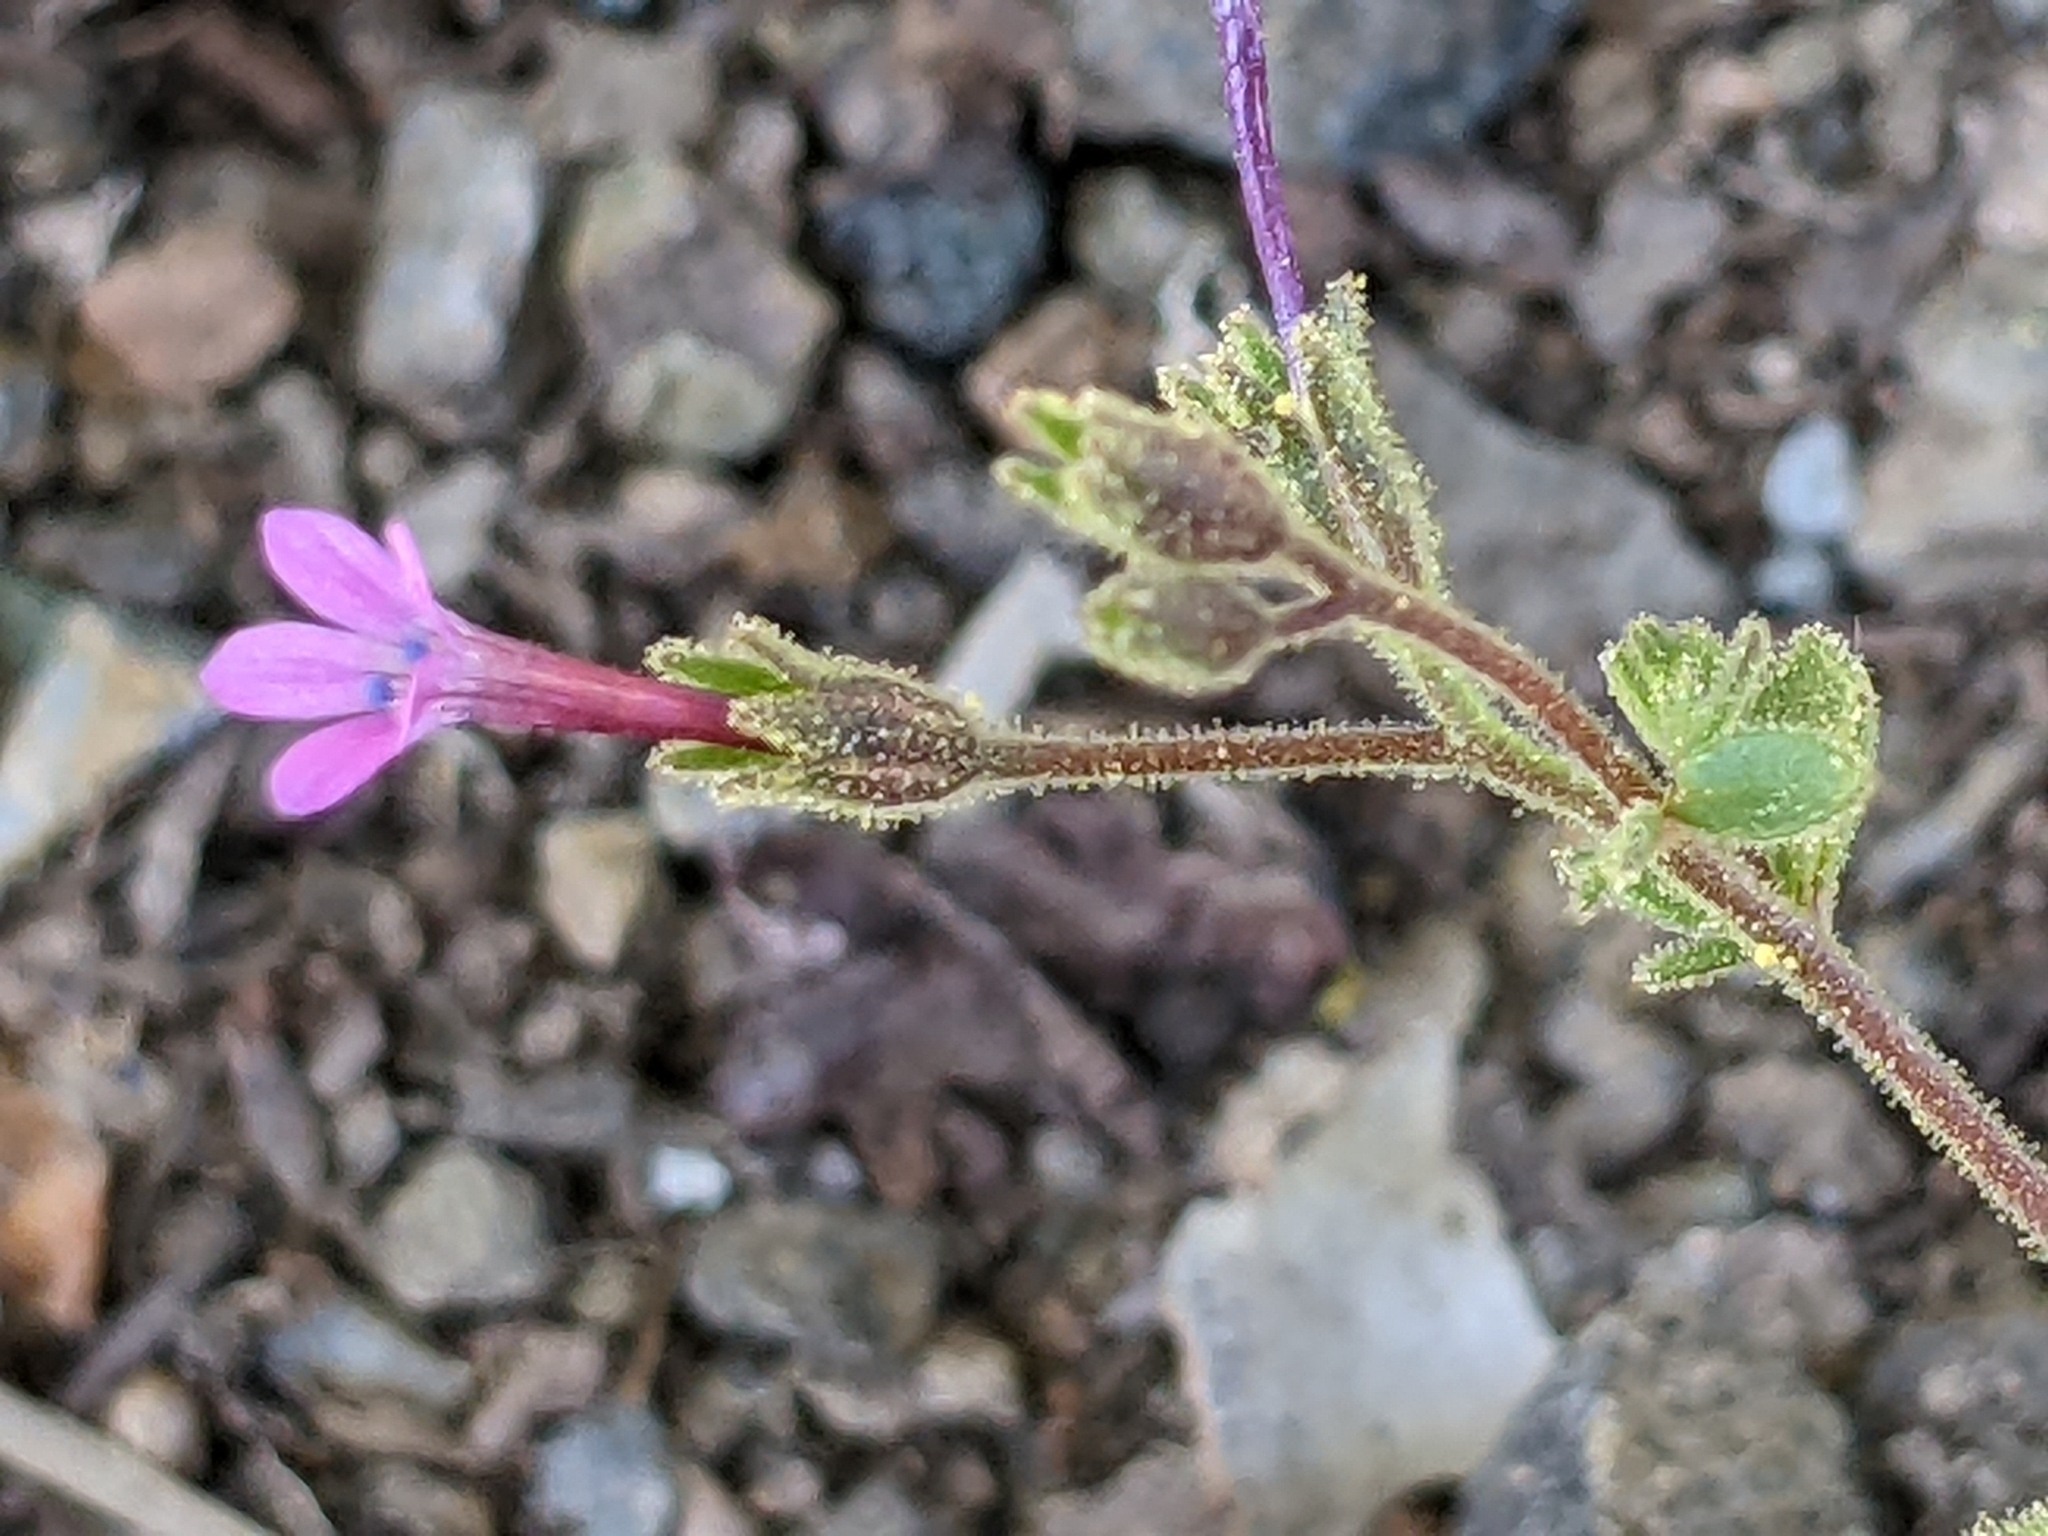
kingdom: Plantae
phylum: Tracheophyta
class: Magnoliopsida
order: Ericales
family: Polemoniaceae
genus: Allophyllum
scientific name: Allophyllum divaricatum
